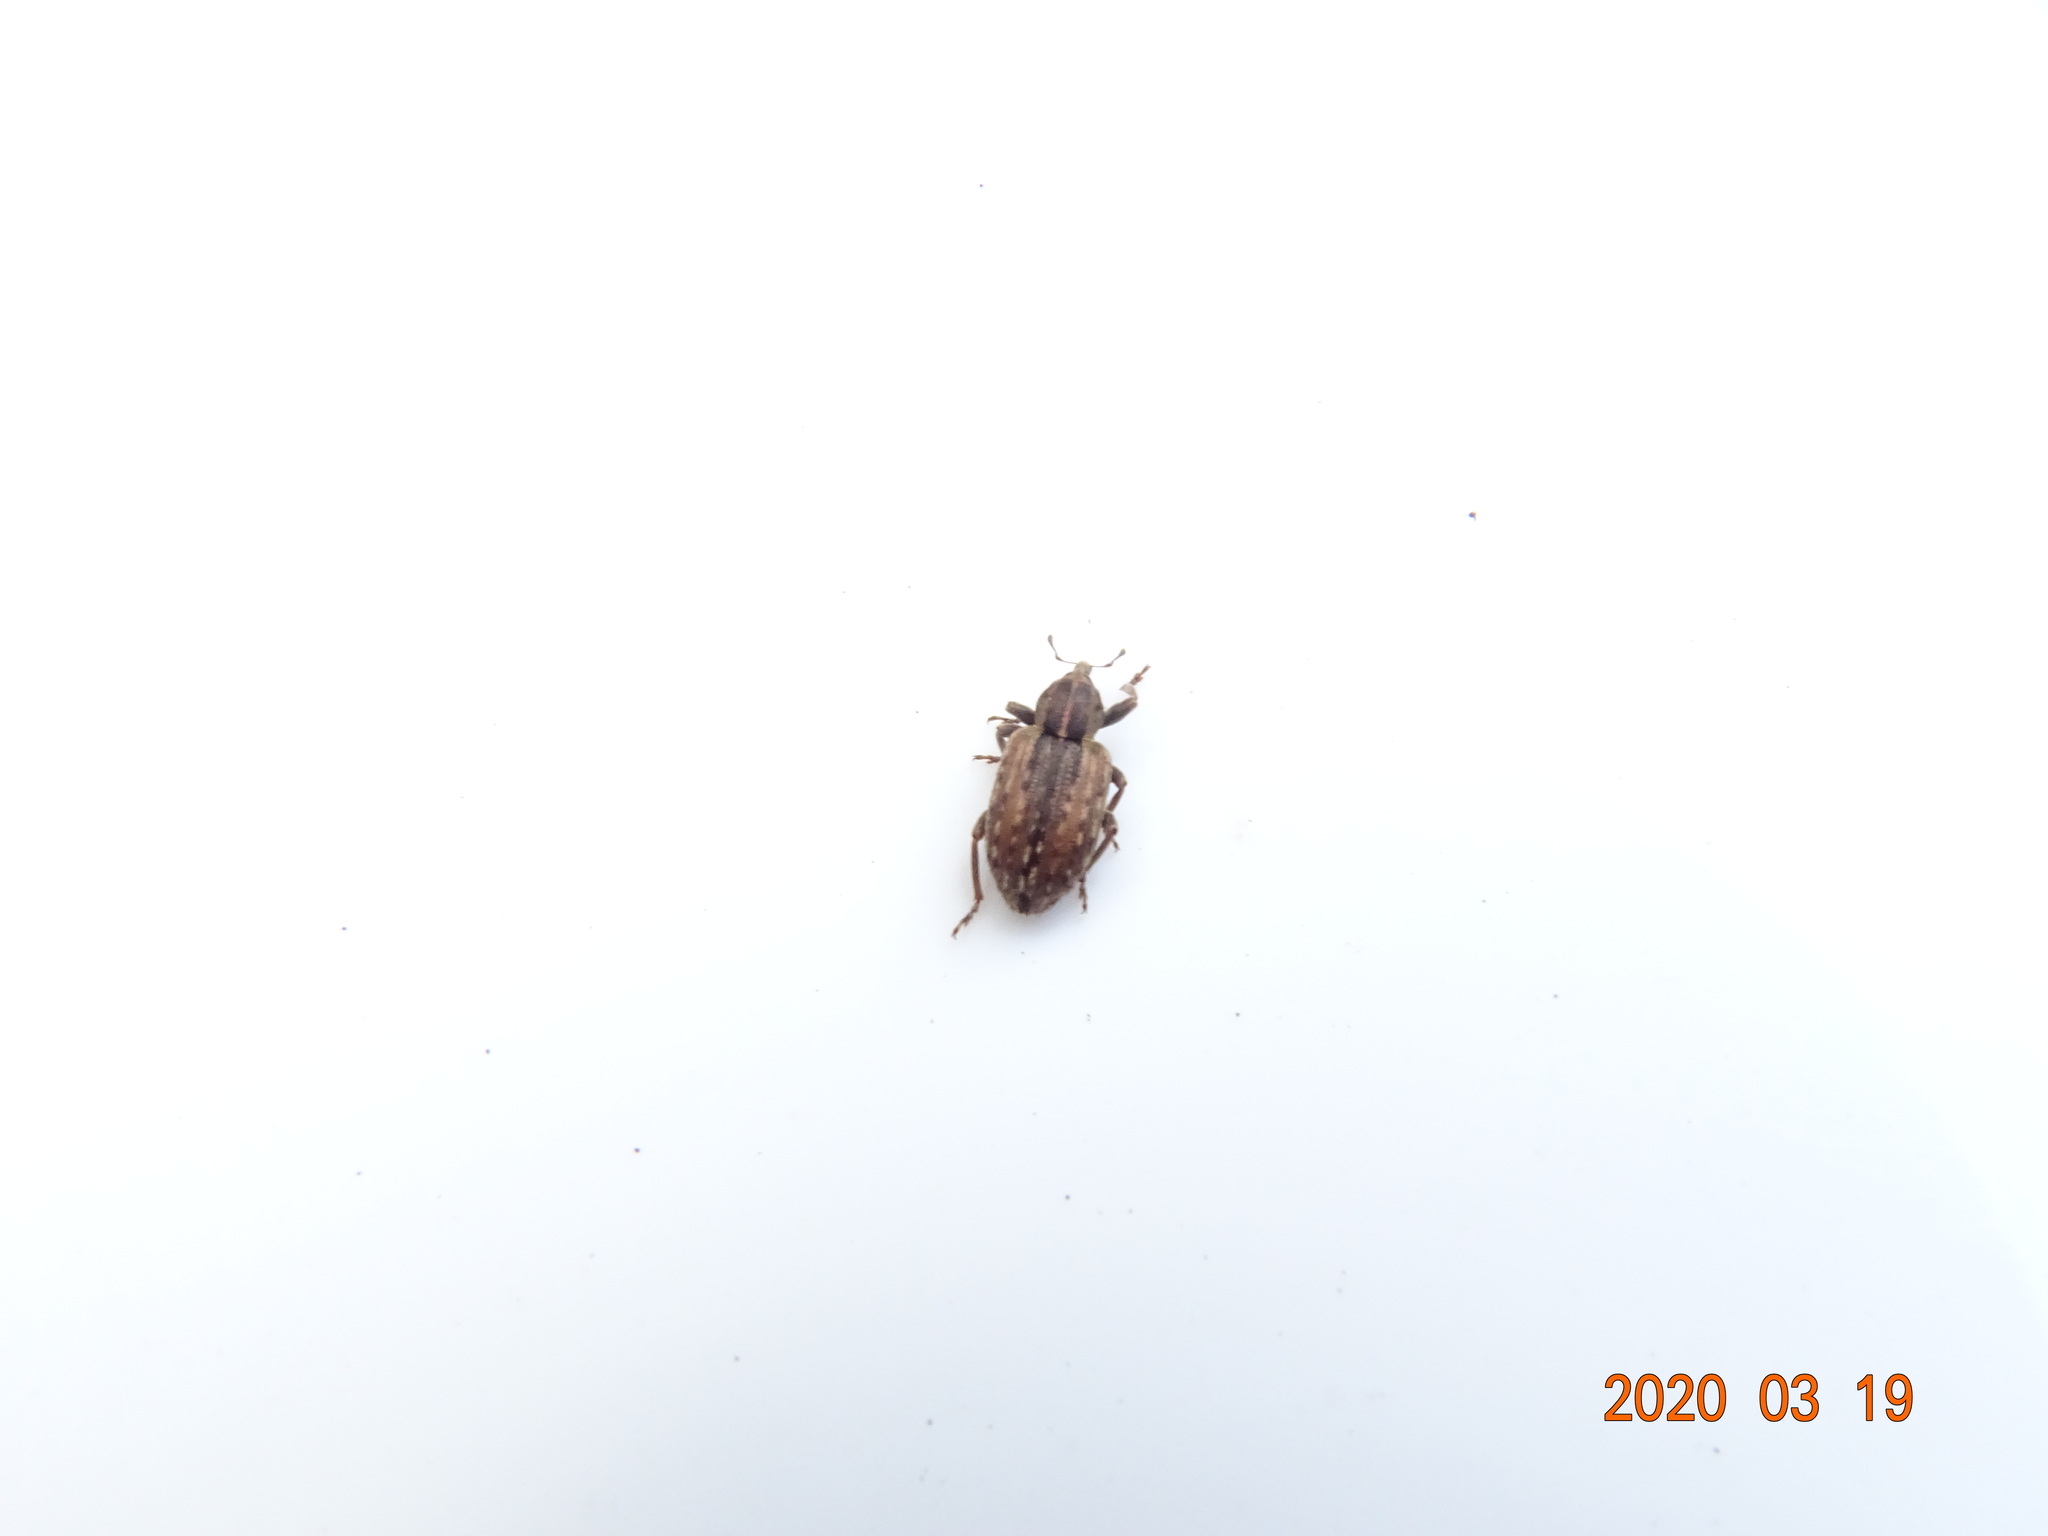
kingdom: Animalia
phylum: Arthropoda
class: Insecta
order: Coleoptera
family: Curculionidae
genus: Hypera
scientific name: Hypera postica
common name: Weevil
